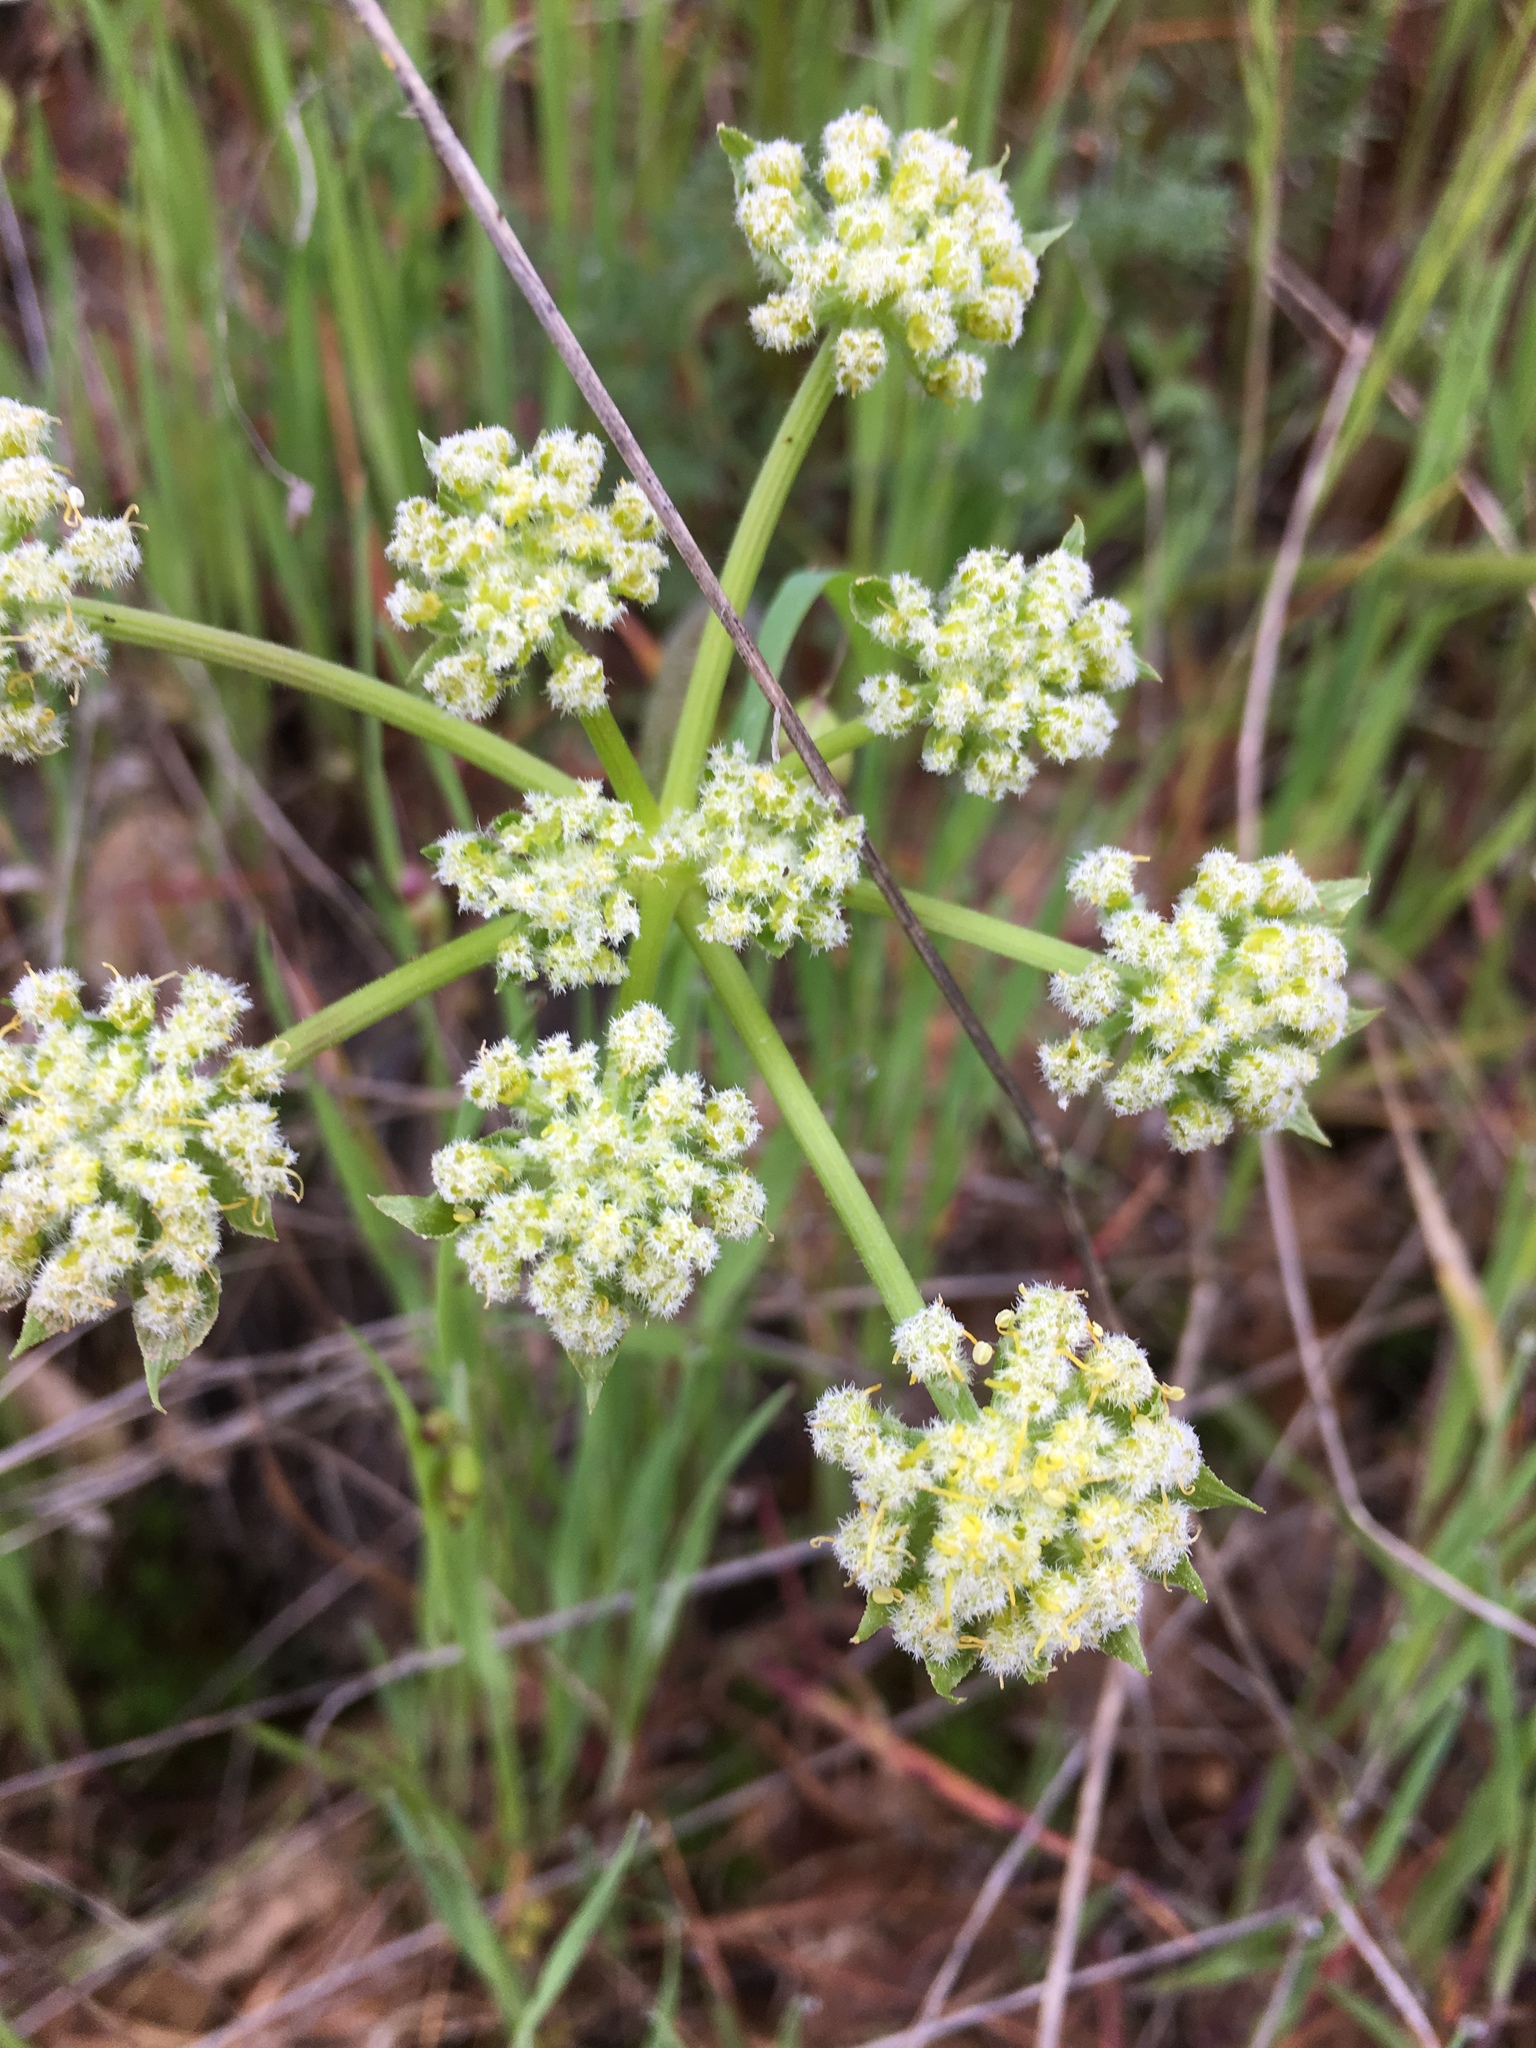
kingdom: Plantae
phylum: Tracheophyta
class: Magnoliopsida
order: Apiales
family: Apiaceae
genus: Lomatium
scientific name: Lomatium dasycarpum
